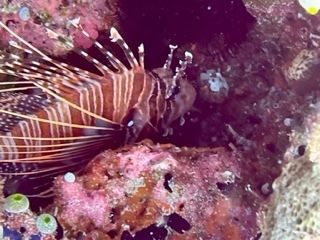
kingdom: Animalia
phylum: Chordata
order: Scorpaeniformes
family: Scorpaenidae
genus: Pterois
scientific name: Pterois antennata
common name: Spotfin lionfish
